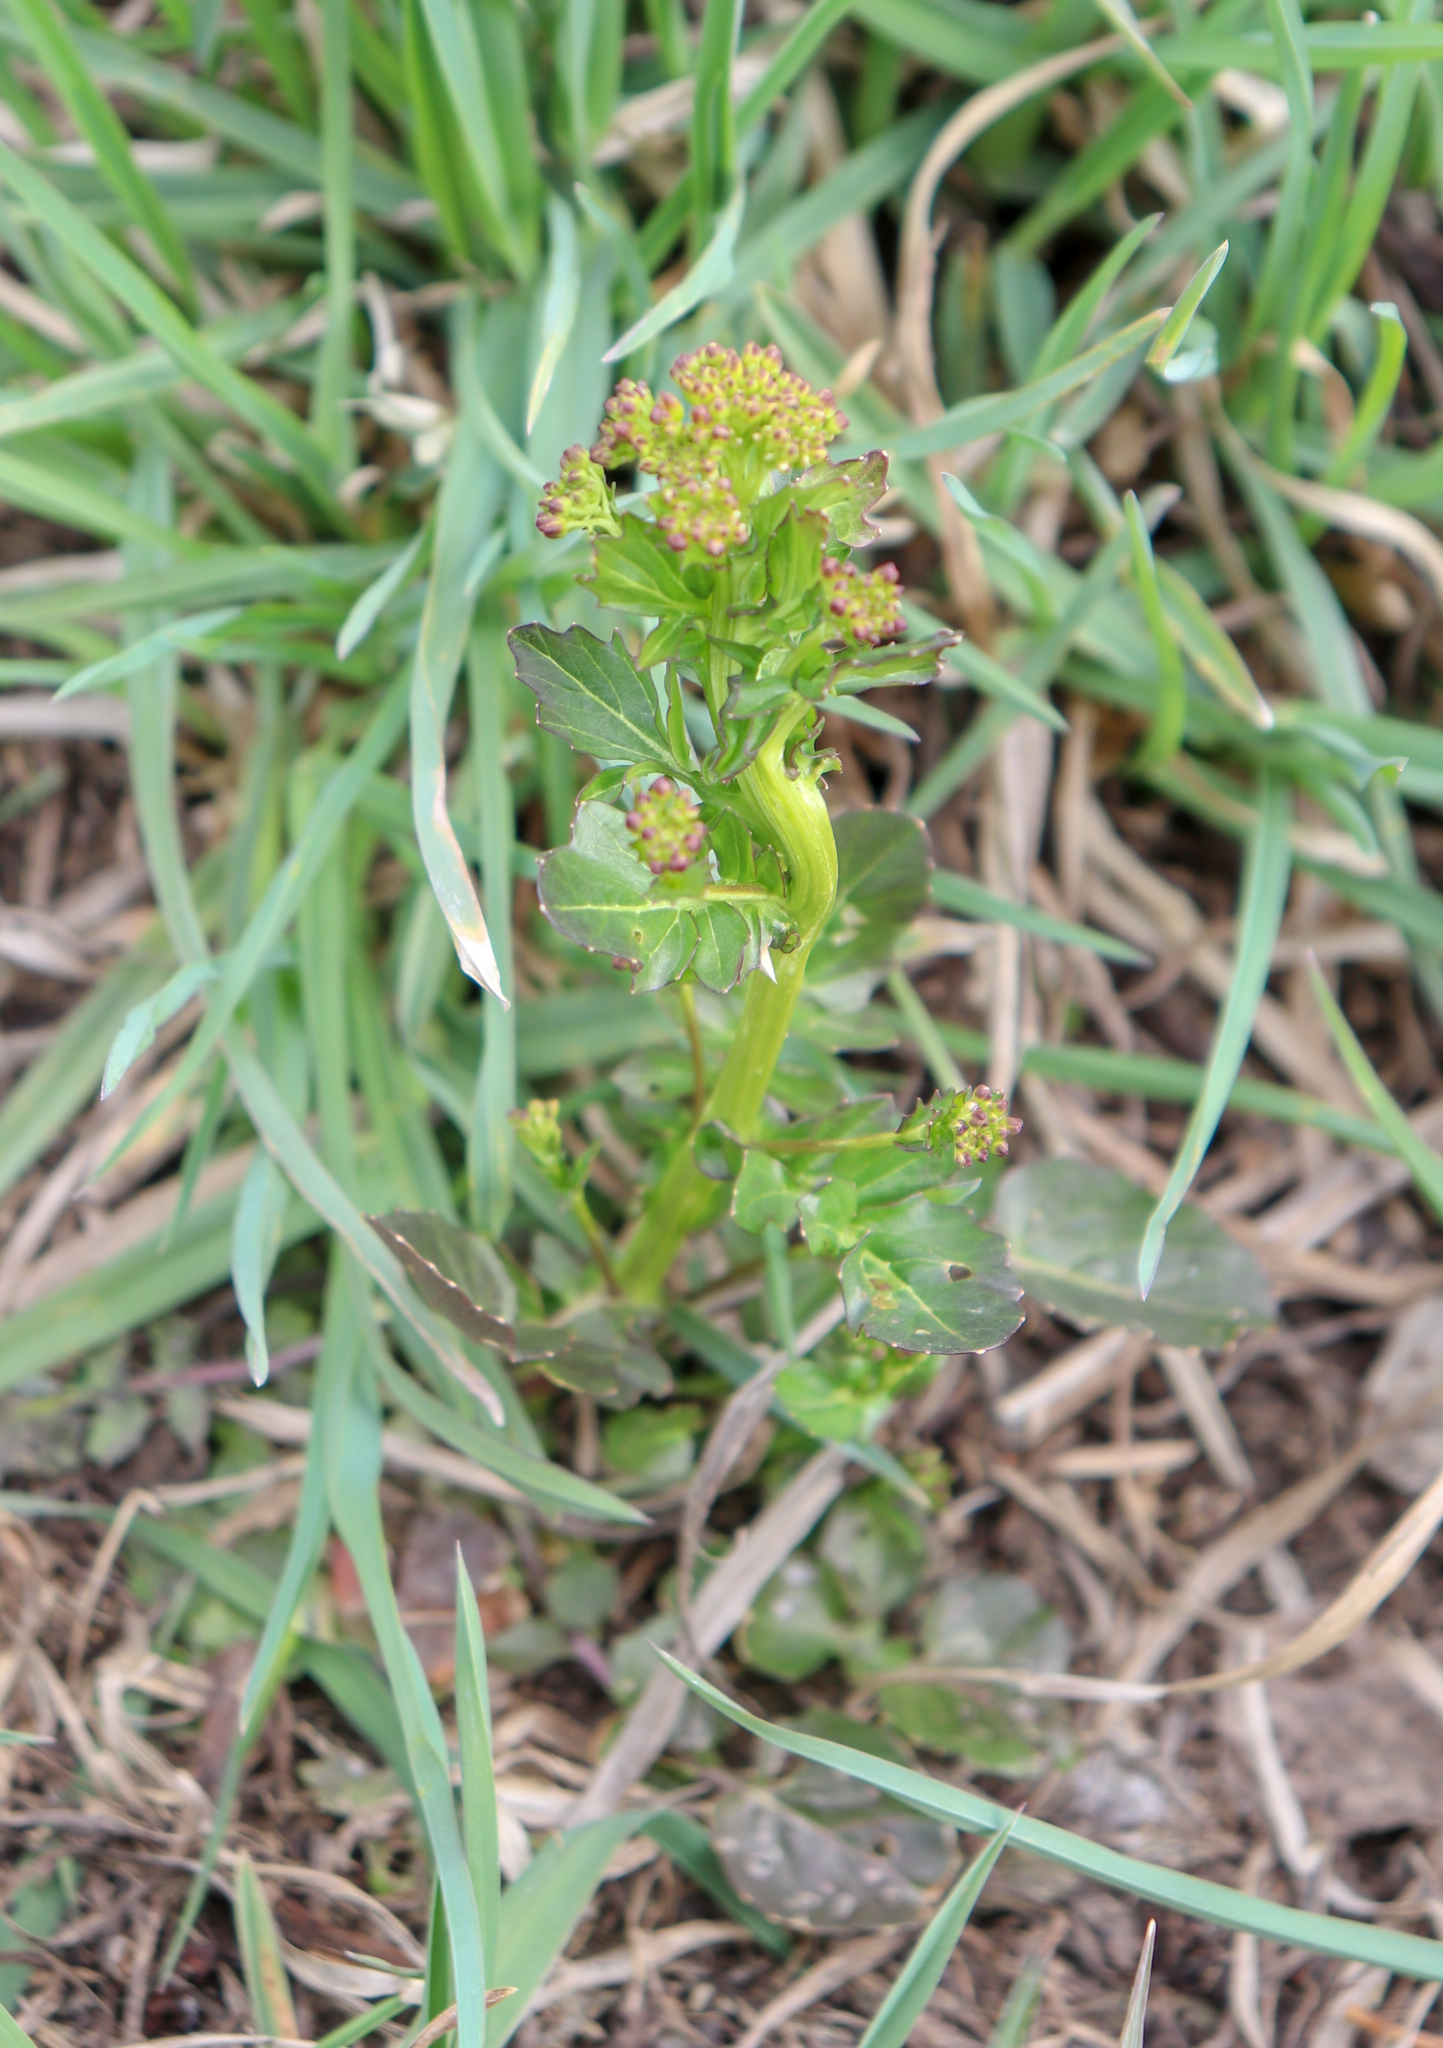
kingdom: Plantae
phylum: Tracheophyta
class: Magnoliopsida
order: Brassicales
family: Brassicaceae
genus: Barbarea
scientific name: Barbarea vulgaris
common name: Cressy-greens
